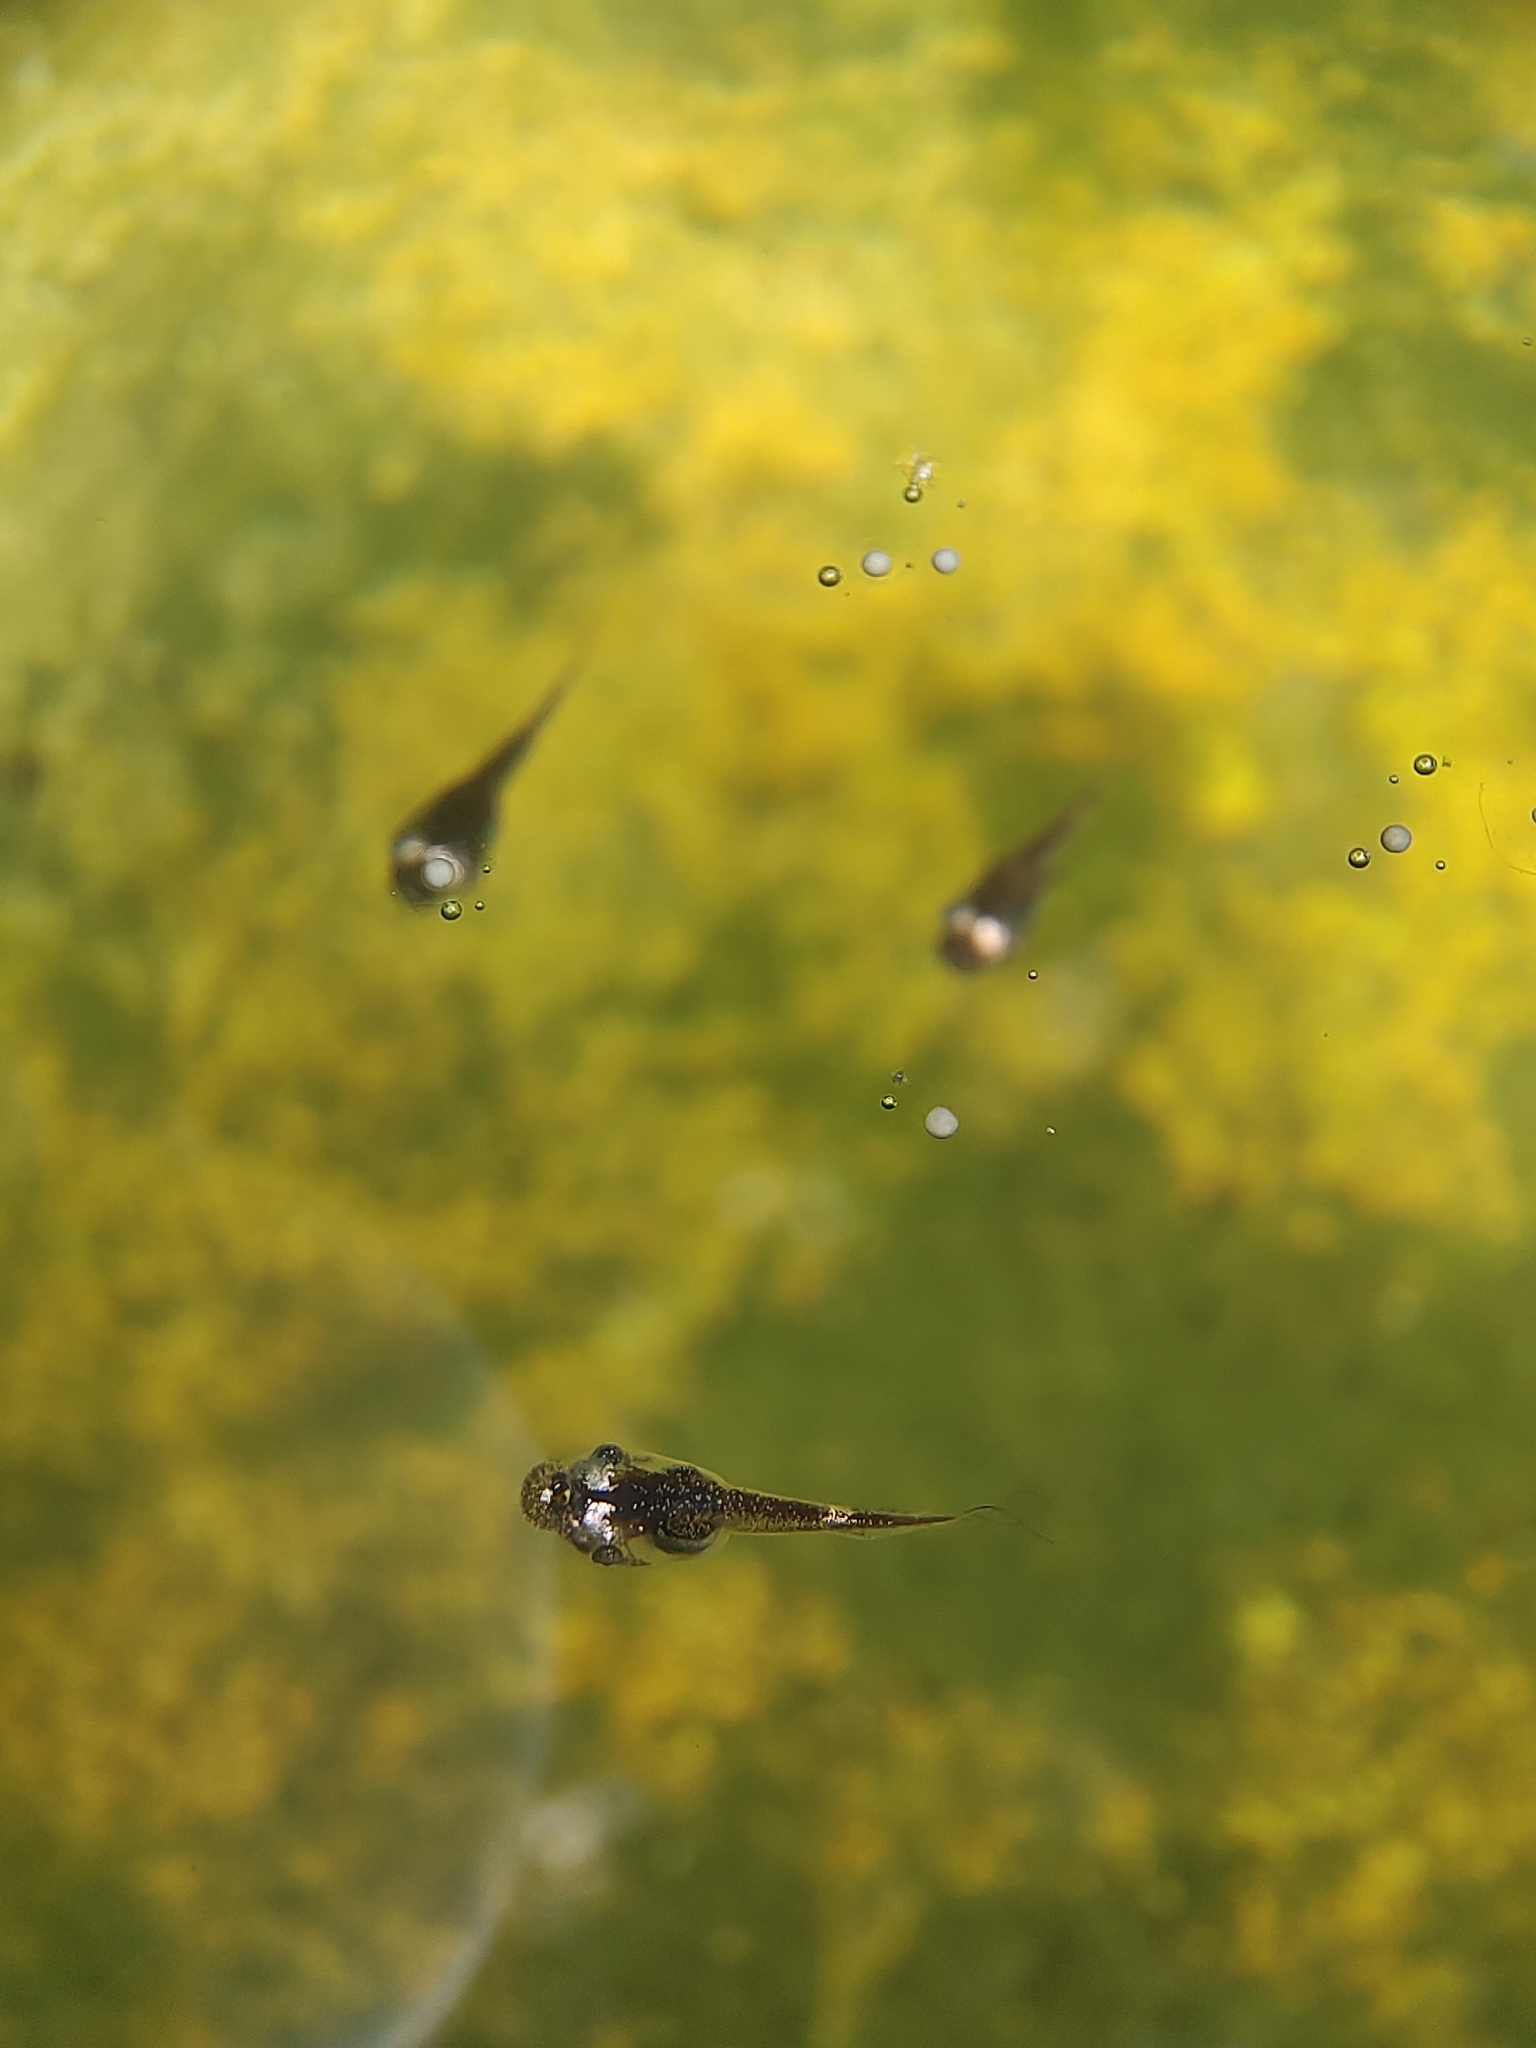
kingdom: Animalia
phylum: Chordata
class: Amphibia
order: Anura
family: Microhylidae
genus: Microhyla
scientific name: Microhyla heymonsi
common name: Taiwan rice frog,dark sided chorus frog
